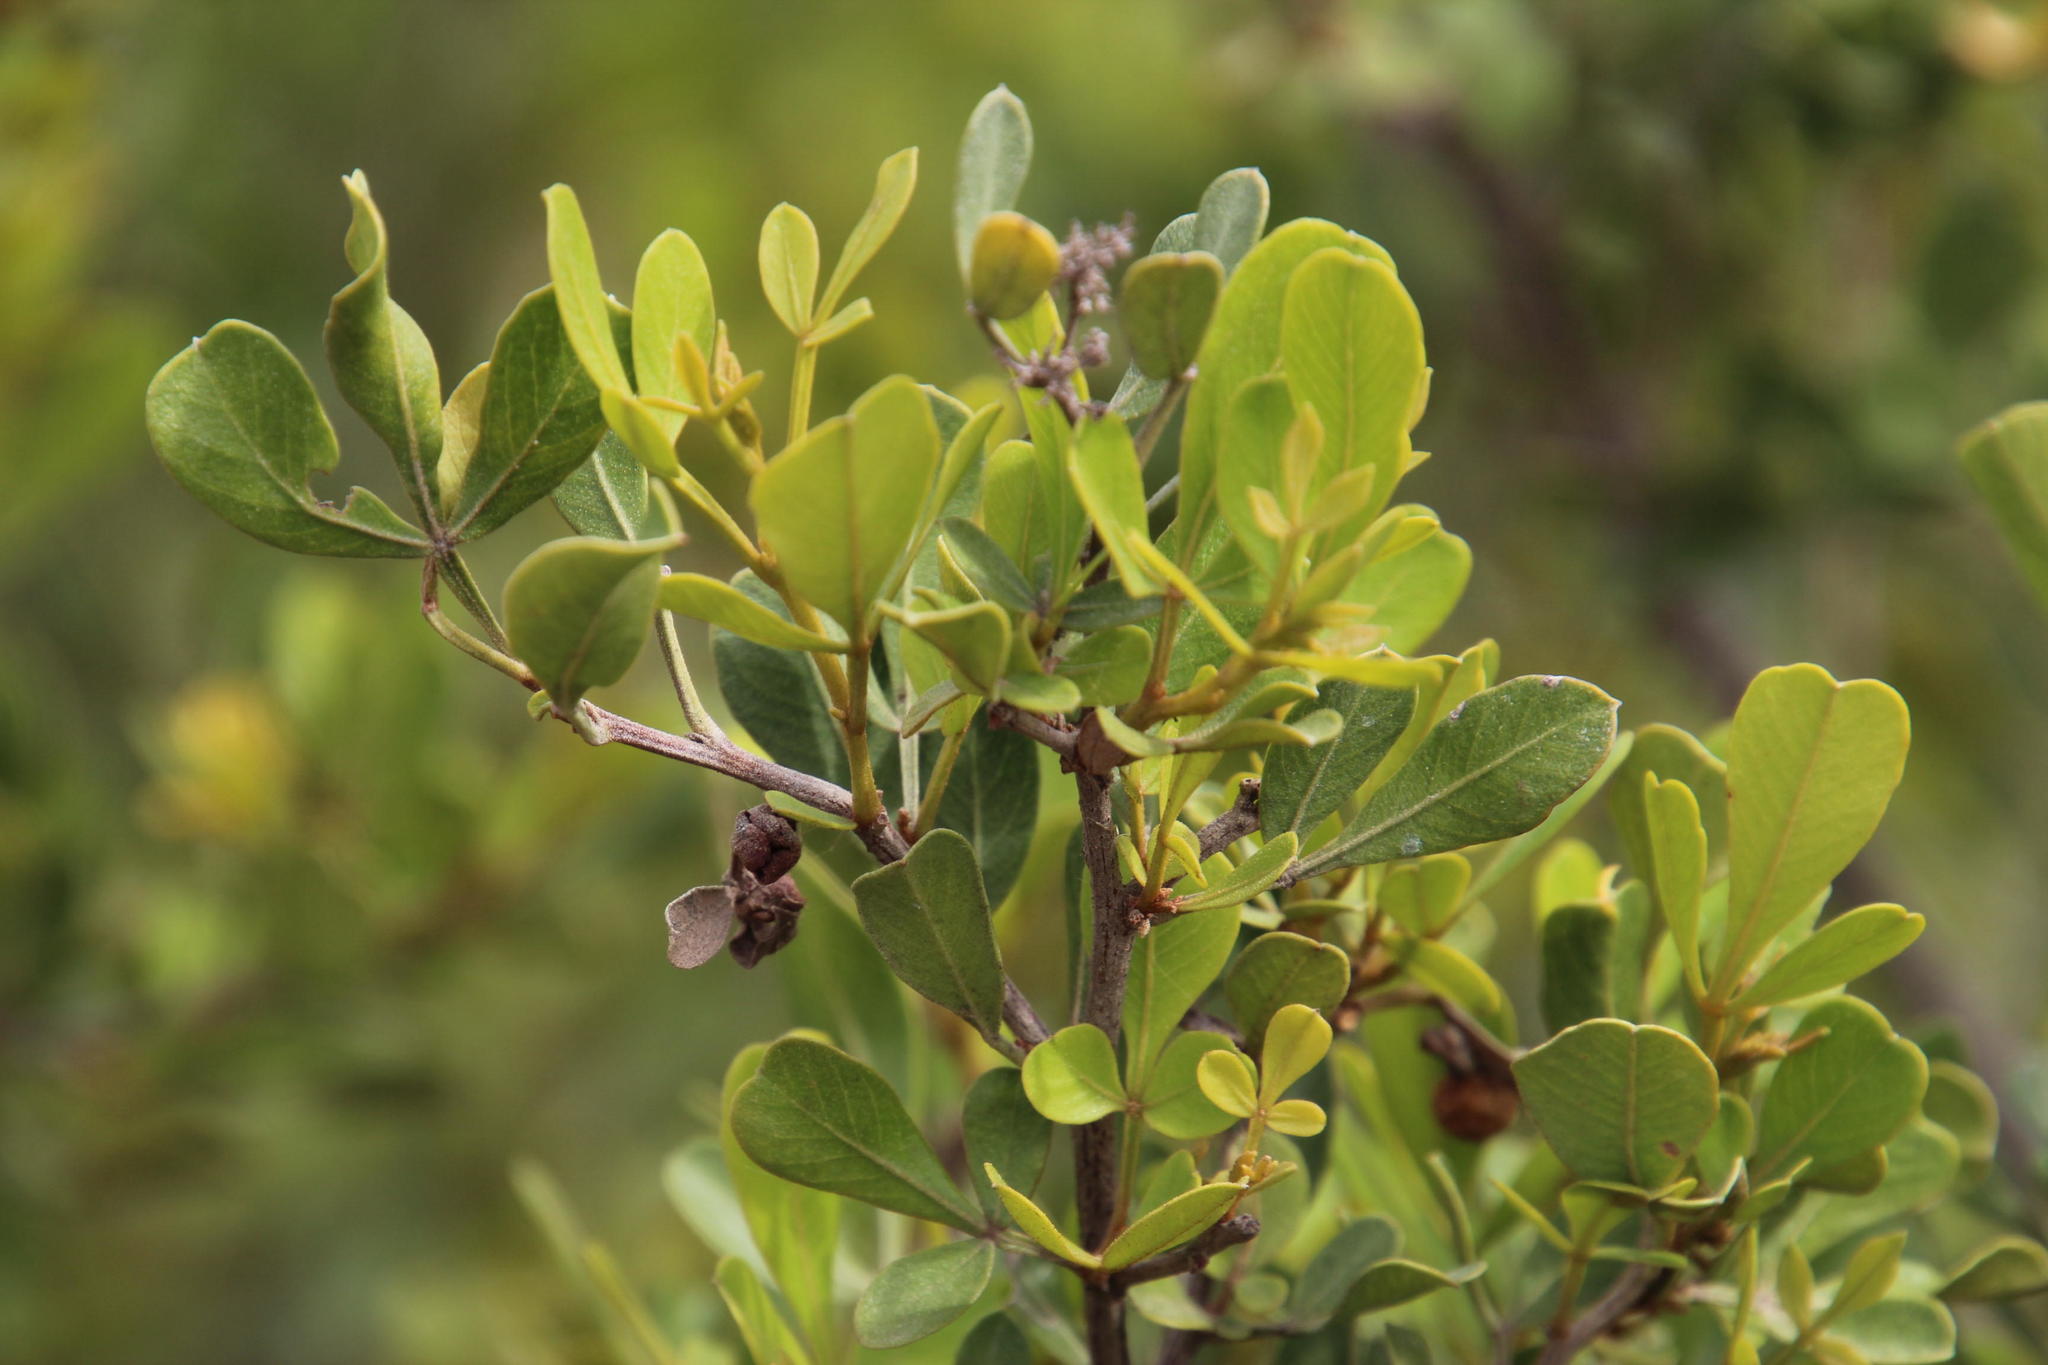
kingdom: Plantae
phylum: Tracheophyta
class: Magnoliopsida
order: Sapindales
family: Anacardiaceae
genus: Searsia
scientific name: Searsia pallens
